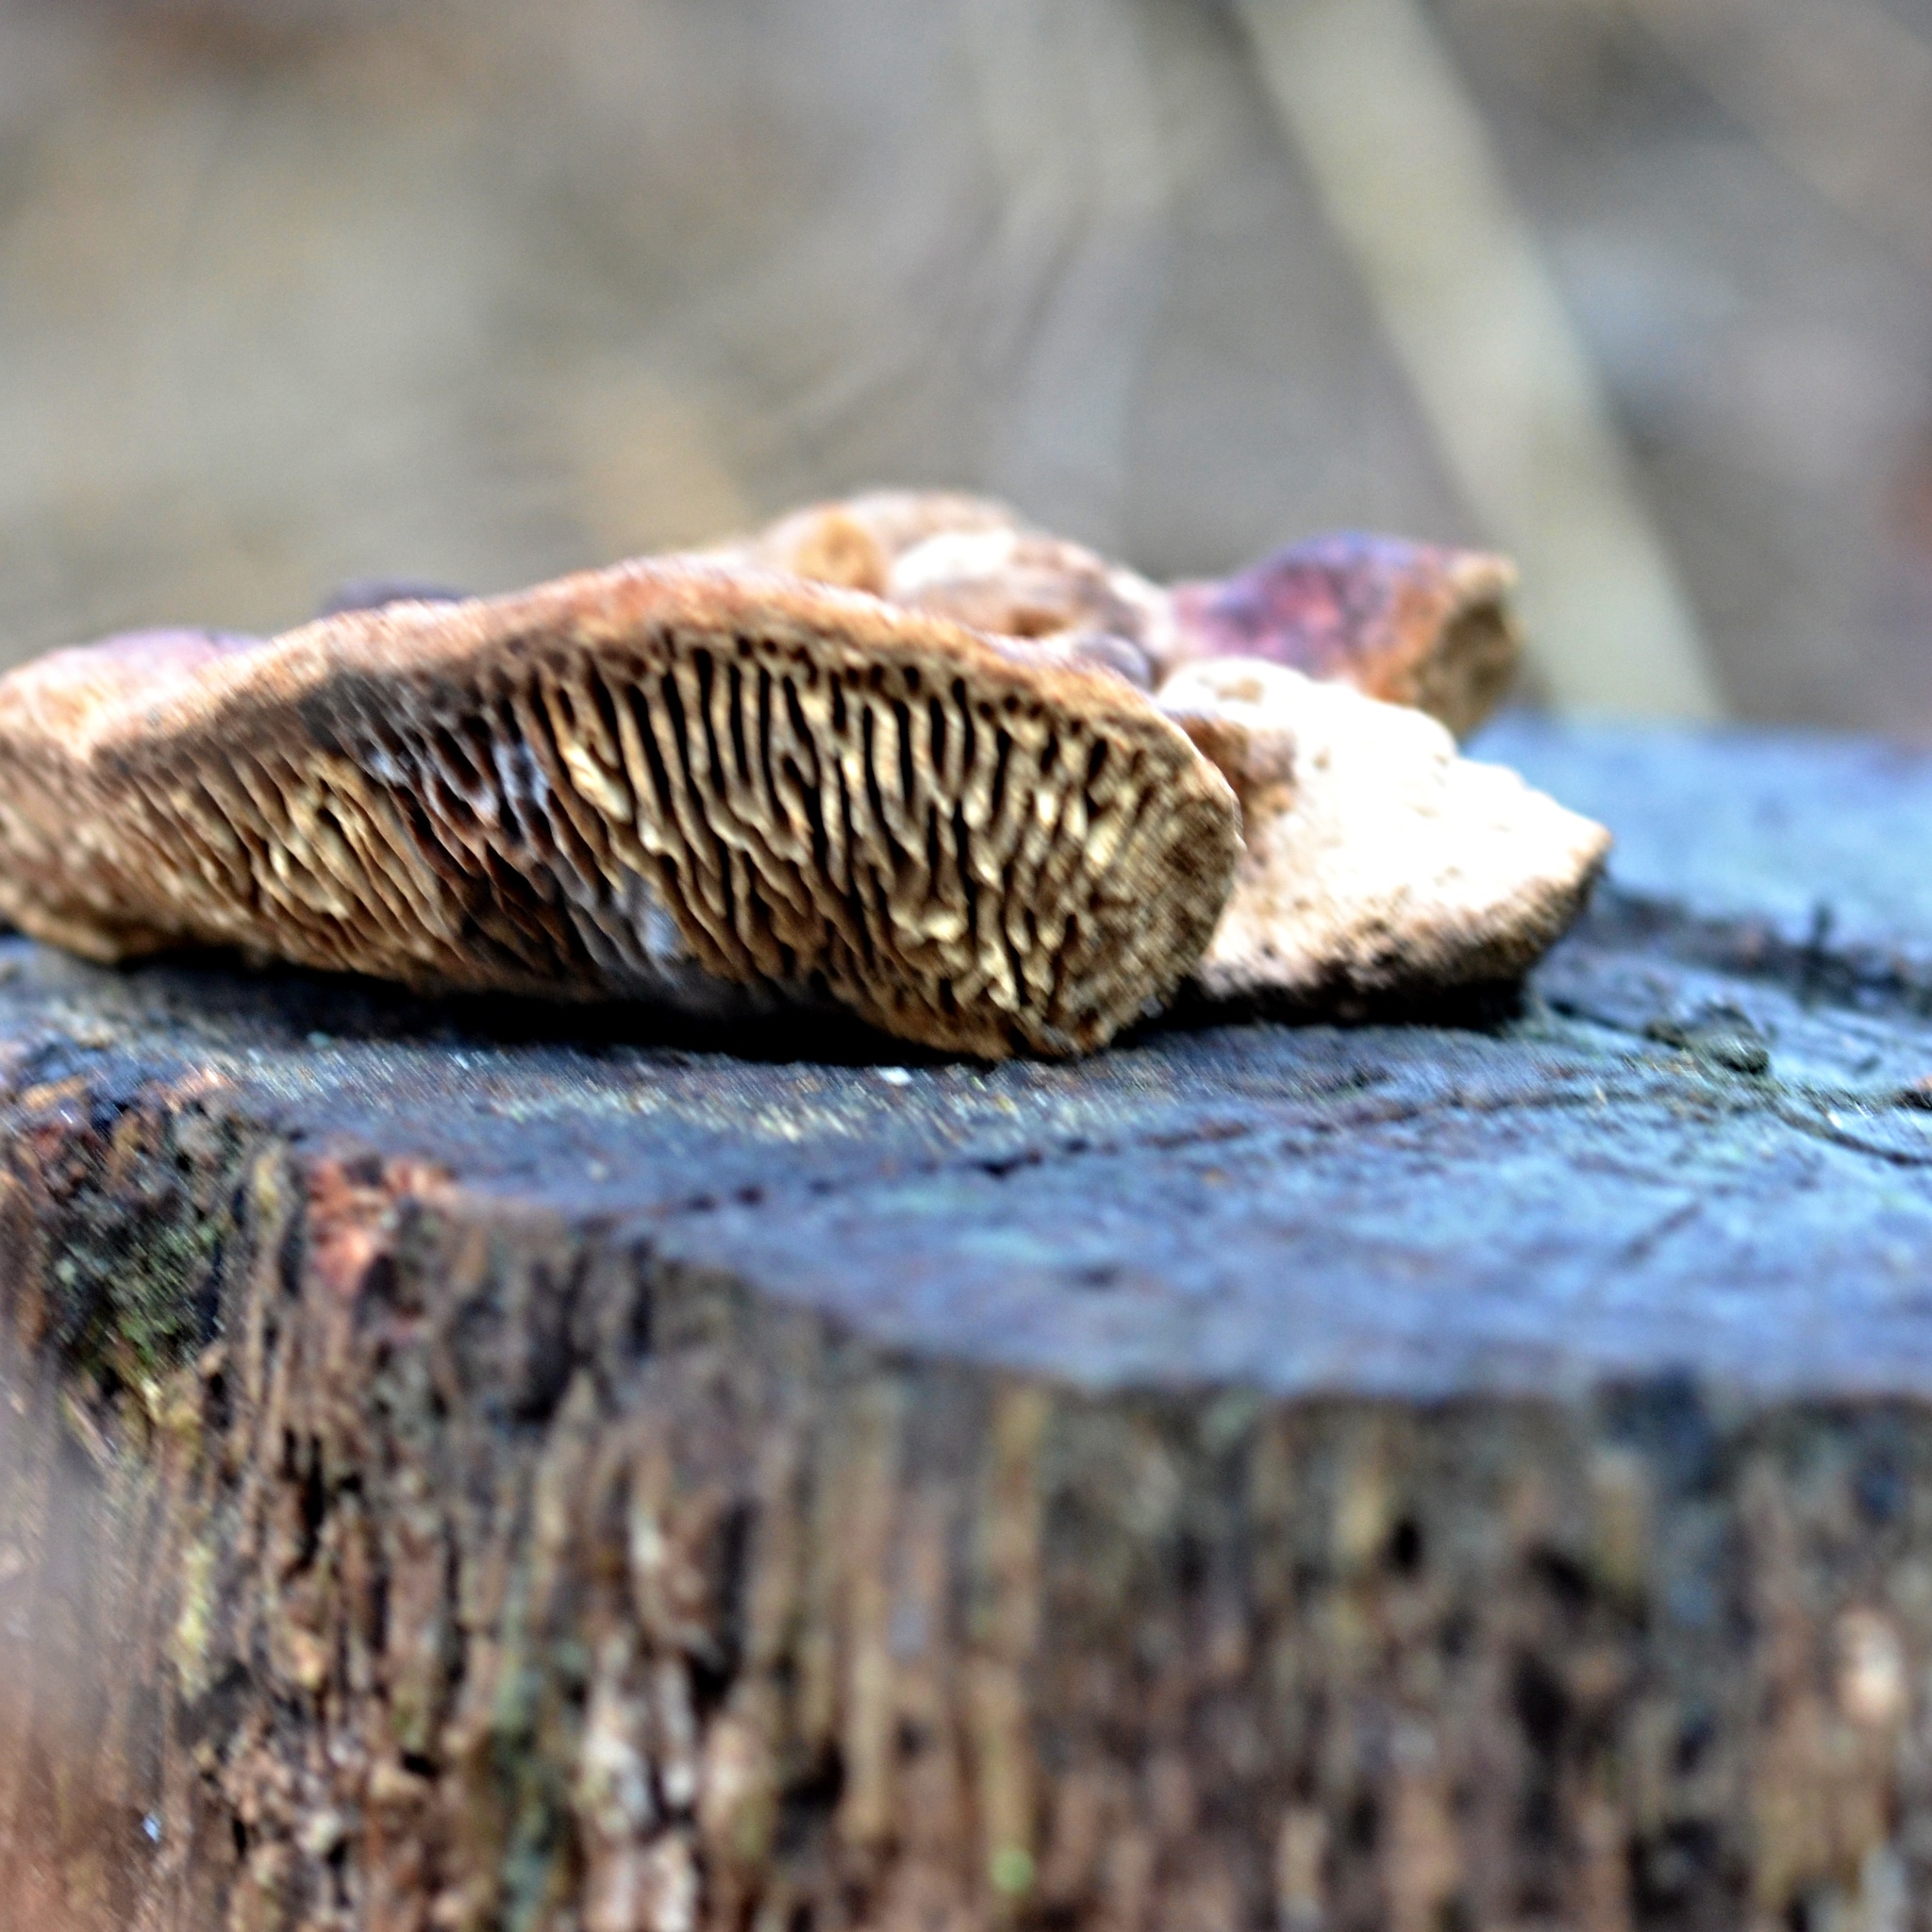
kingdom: Fungi
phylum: Basidiomycota
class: Agaricomycetes
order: Polyporales
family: Fomitopsidaceae
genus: Fomitopsis
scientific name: Fomitopsis
